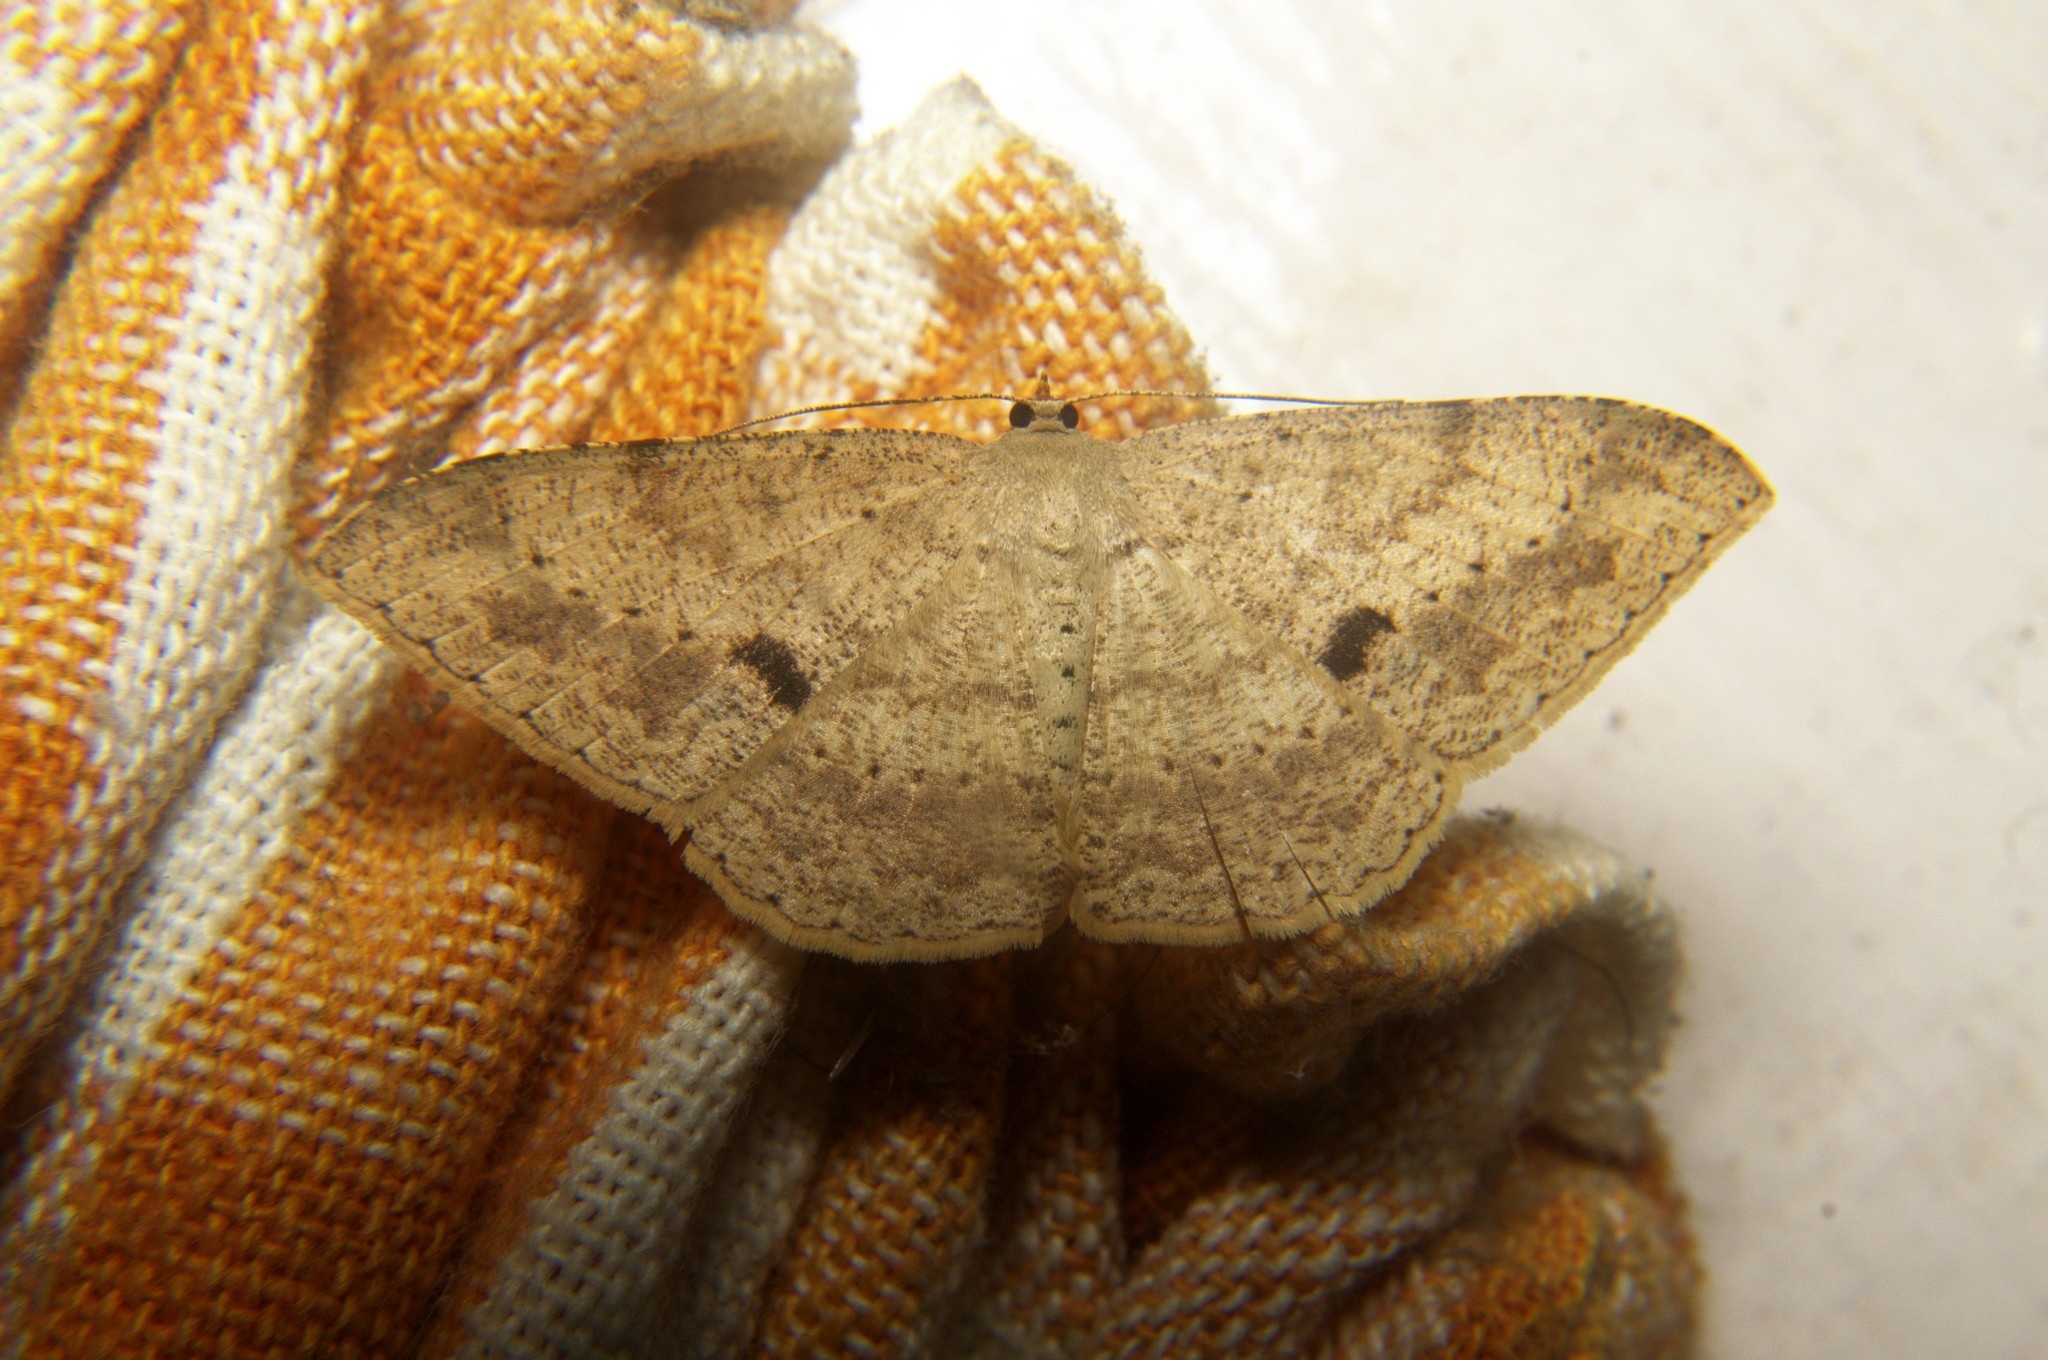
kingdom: Animalia
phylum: Arthropoda
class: Insecta
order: Lepidoptera
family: Geometridae
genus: Luxiaria
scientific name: Luxiaria tephrosaria
